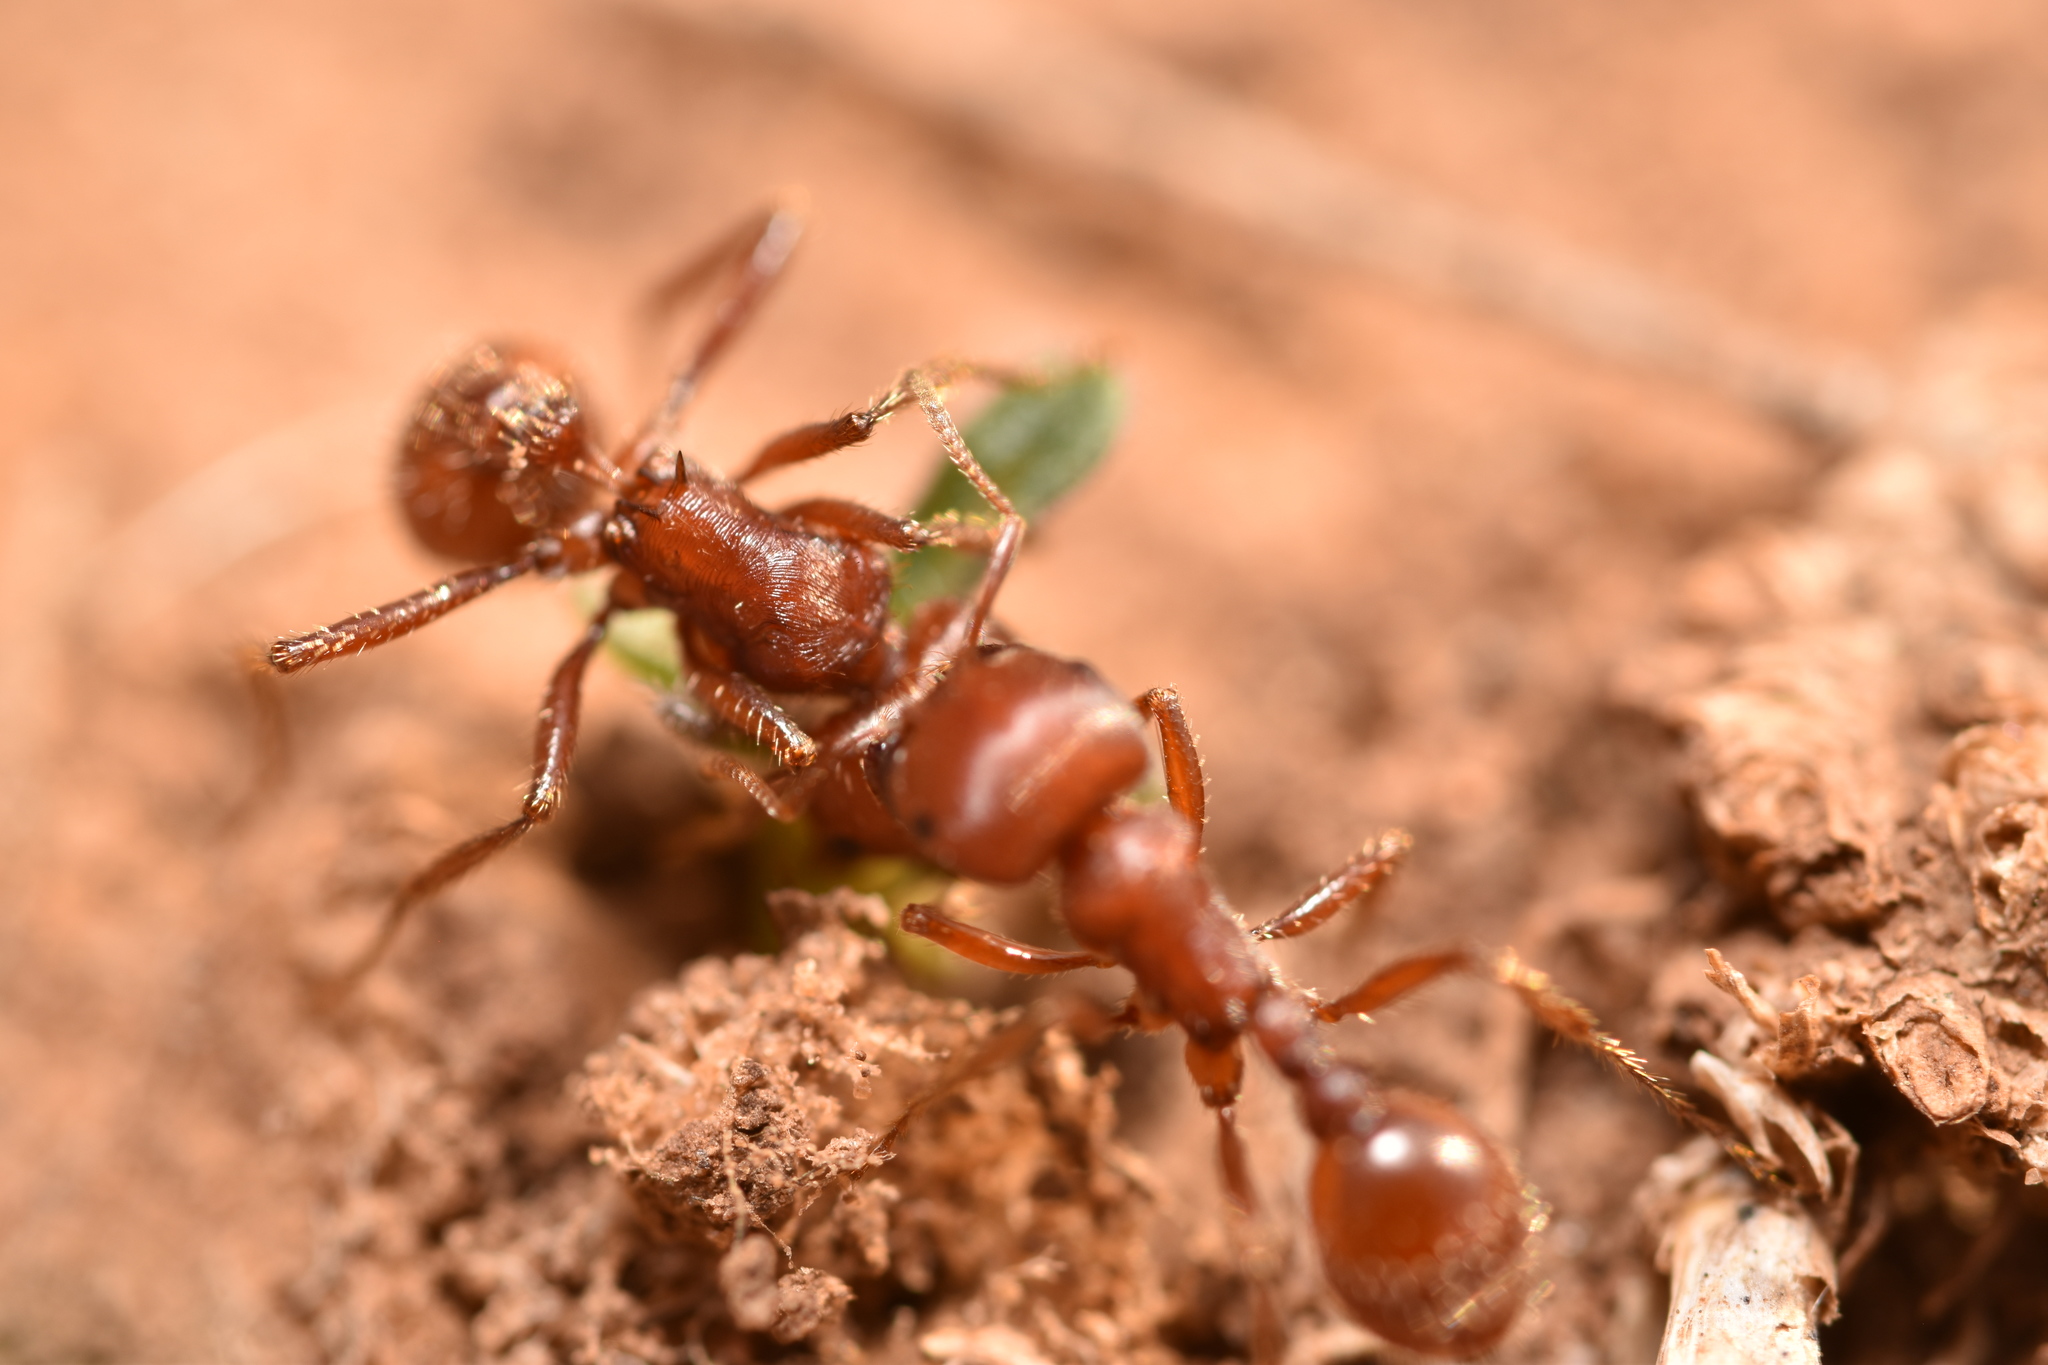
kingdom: Animalia
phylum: Arthropoda
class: Insecta
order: Hymenoptera
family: Formicidae
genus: Pogonomyrmex
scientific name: Pogonomyrmex barbatus
